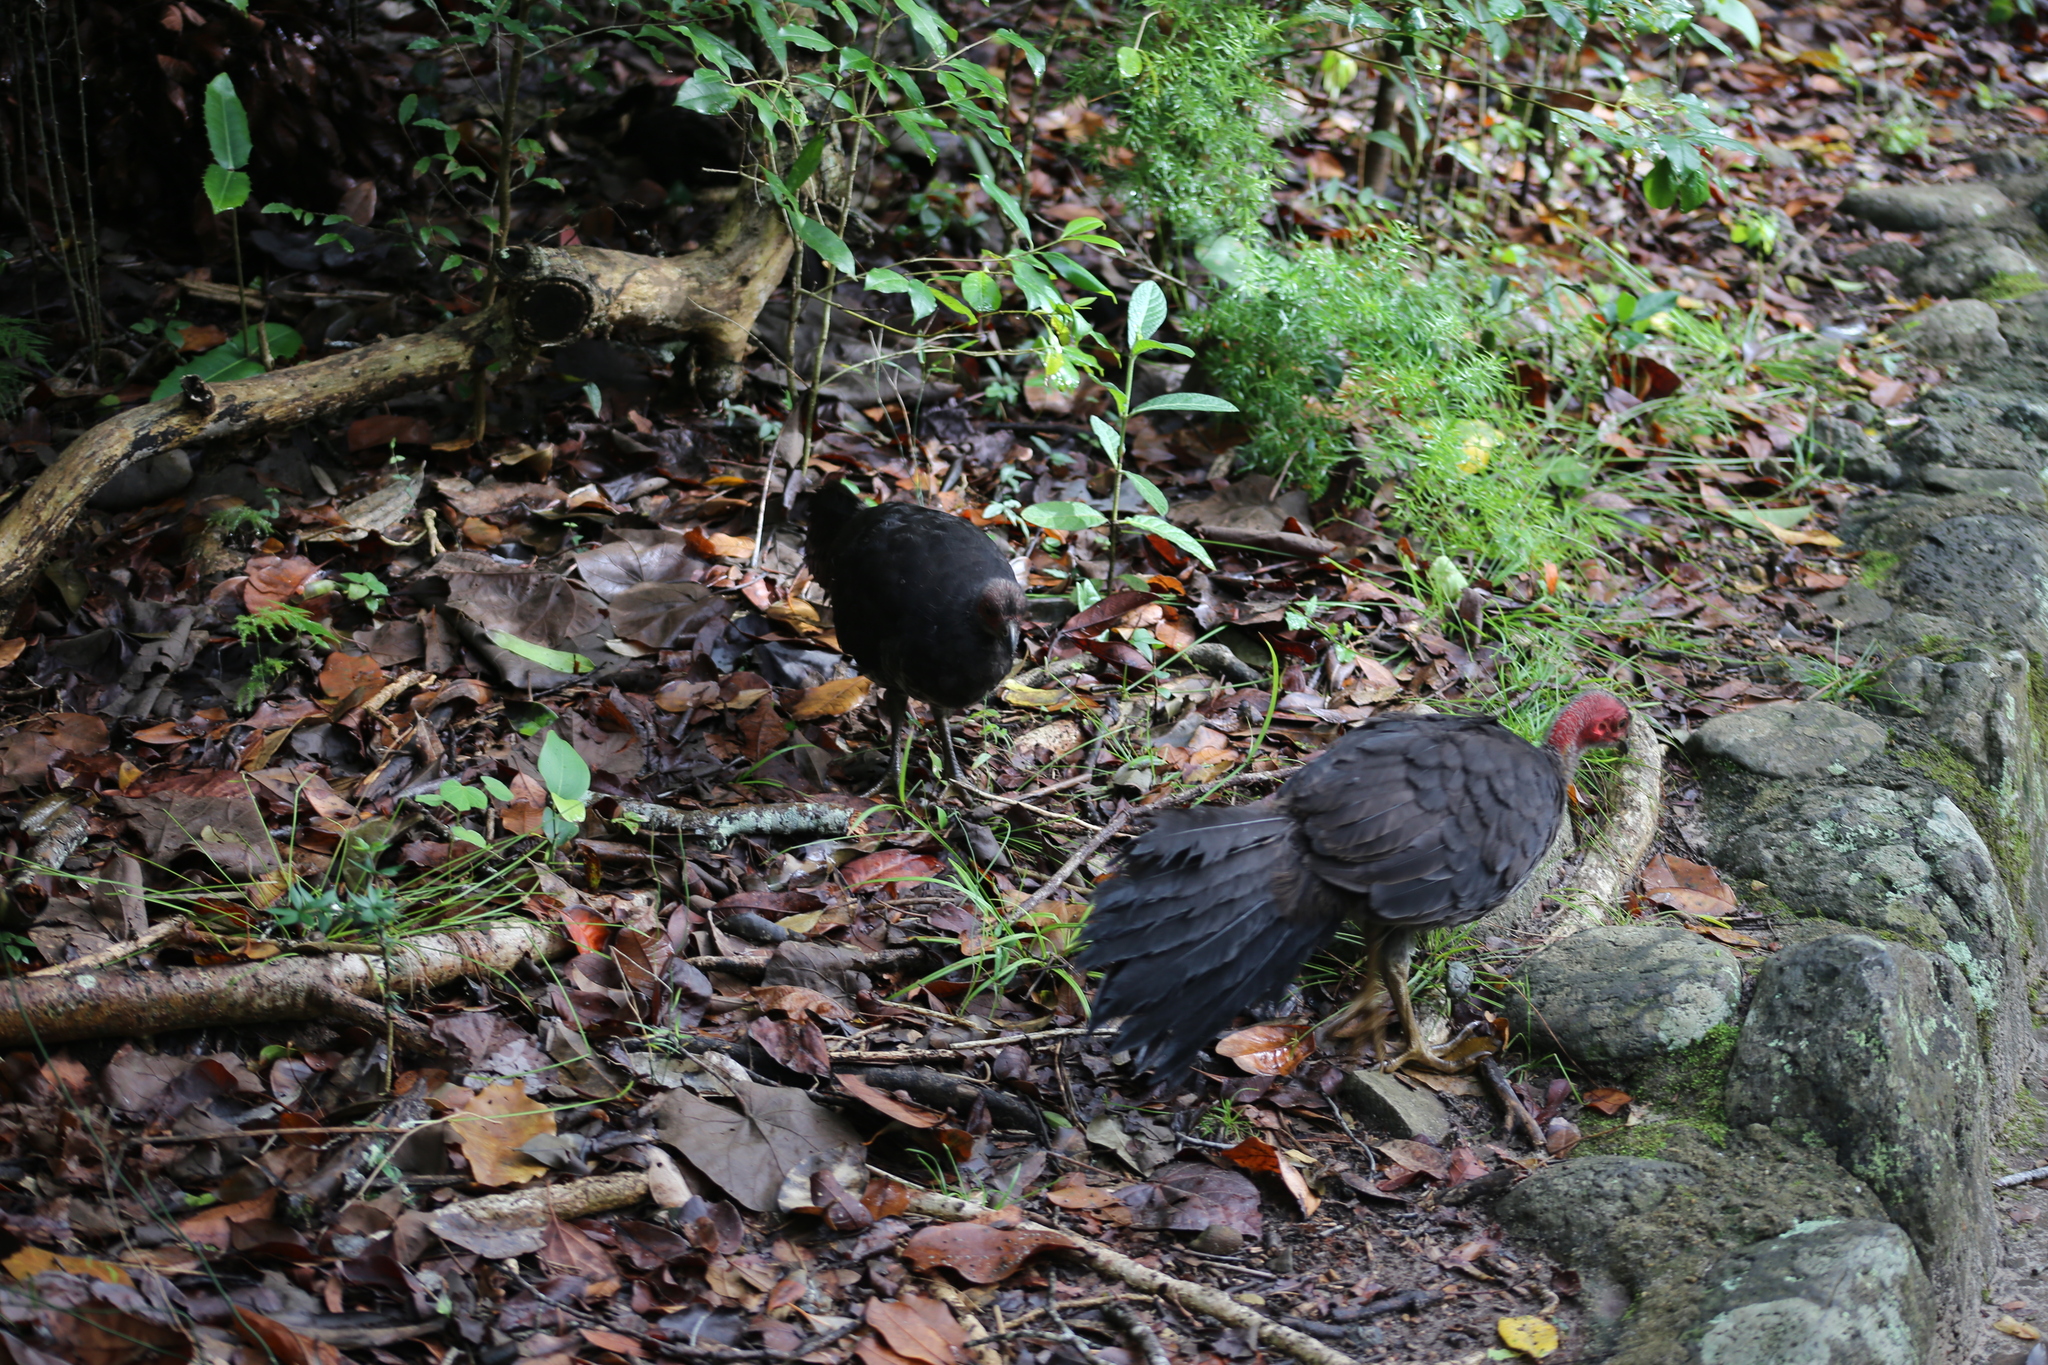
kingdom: Animalia
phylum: Chordata
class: Aves
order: Galliformes
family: Megapodiidae
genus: Alectura
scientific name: Alectura lathami
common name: Australian brushturkey
